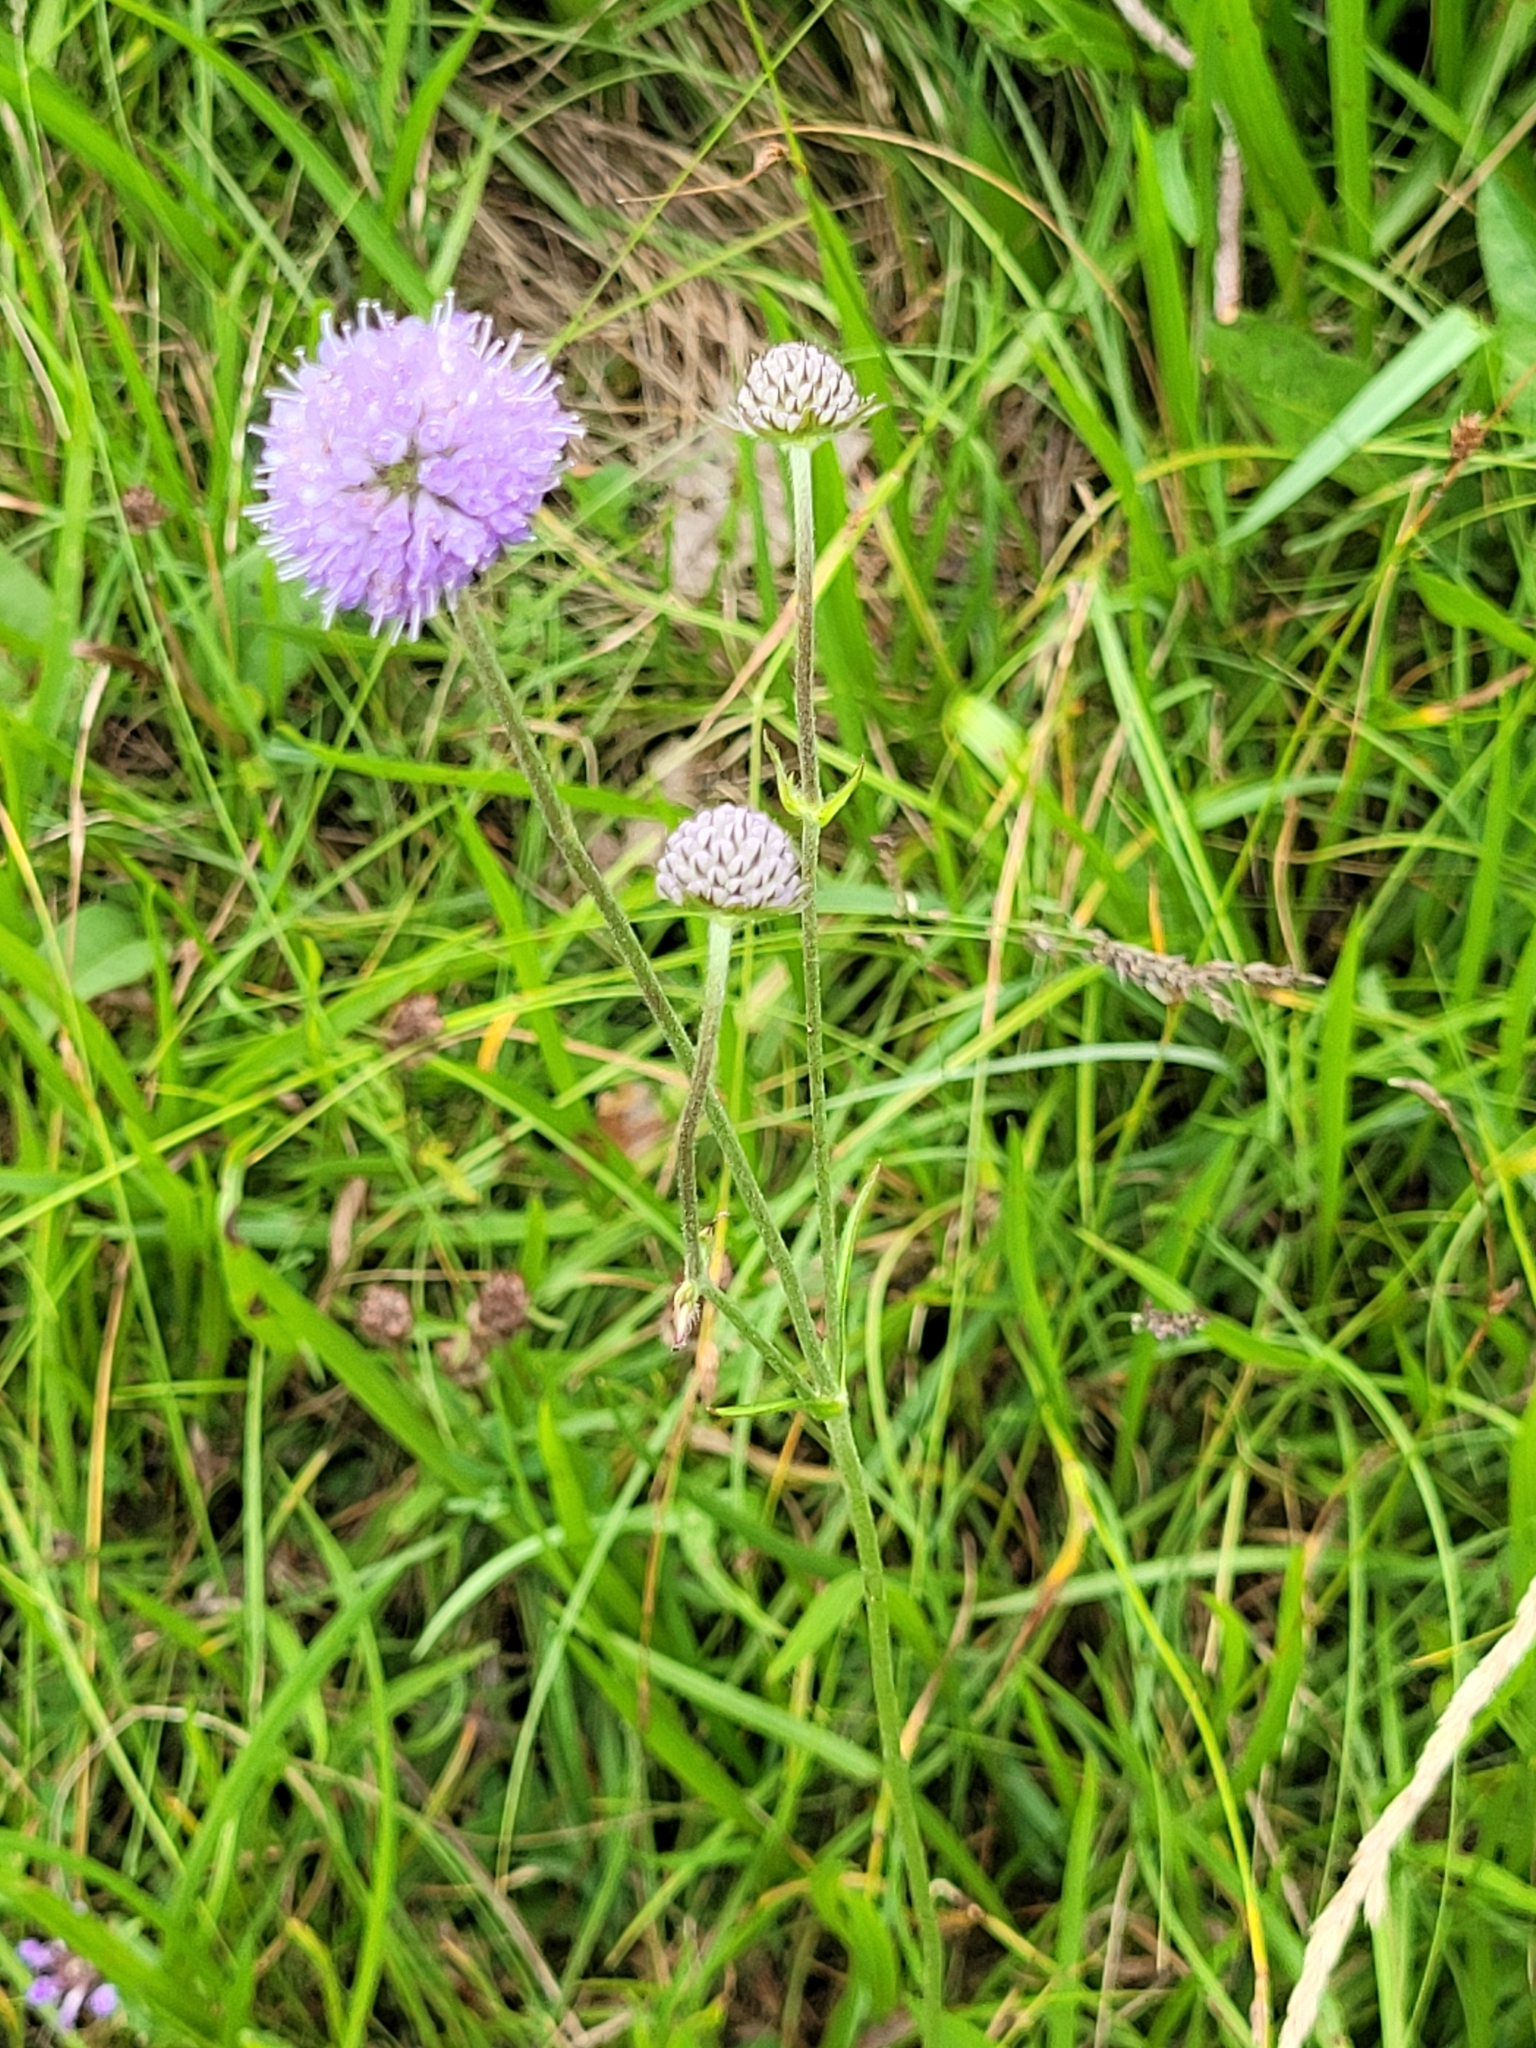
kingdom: Plantae
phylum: Tracheophyta
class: Magnoliopsida
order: Dipsacales
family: Caprifoliaceae
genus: Succisa
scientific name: Succisa pratensis
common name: Devil's-bit
